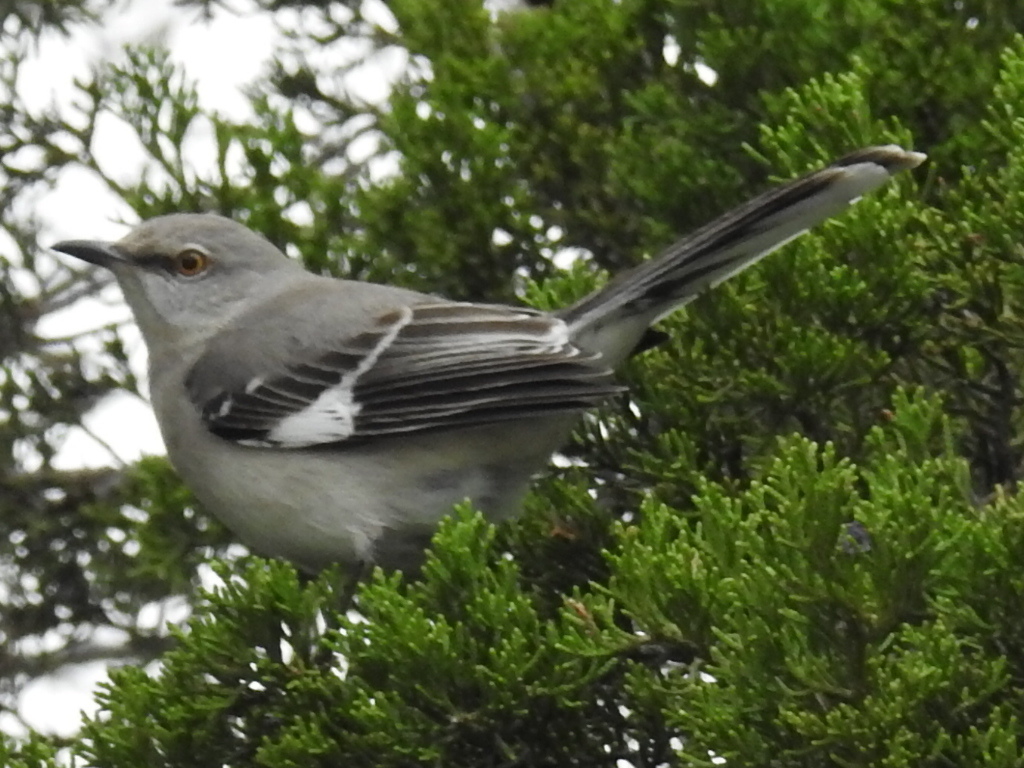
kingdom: Animalia
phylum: Chordata
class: Aves
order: Passeriformes
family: Mimidae
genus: Mimus
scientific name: Mimus polyglottos
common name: Northern mockingbird
